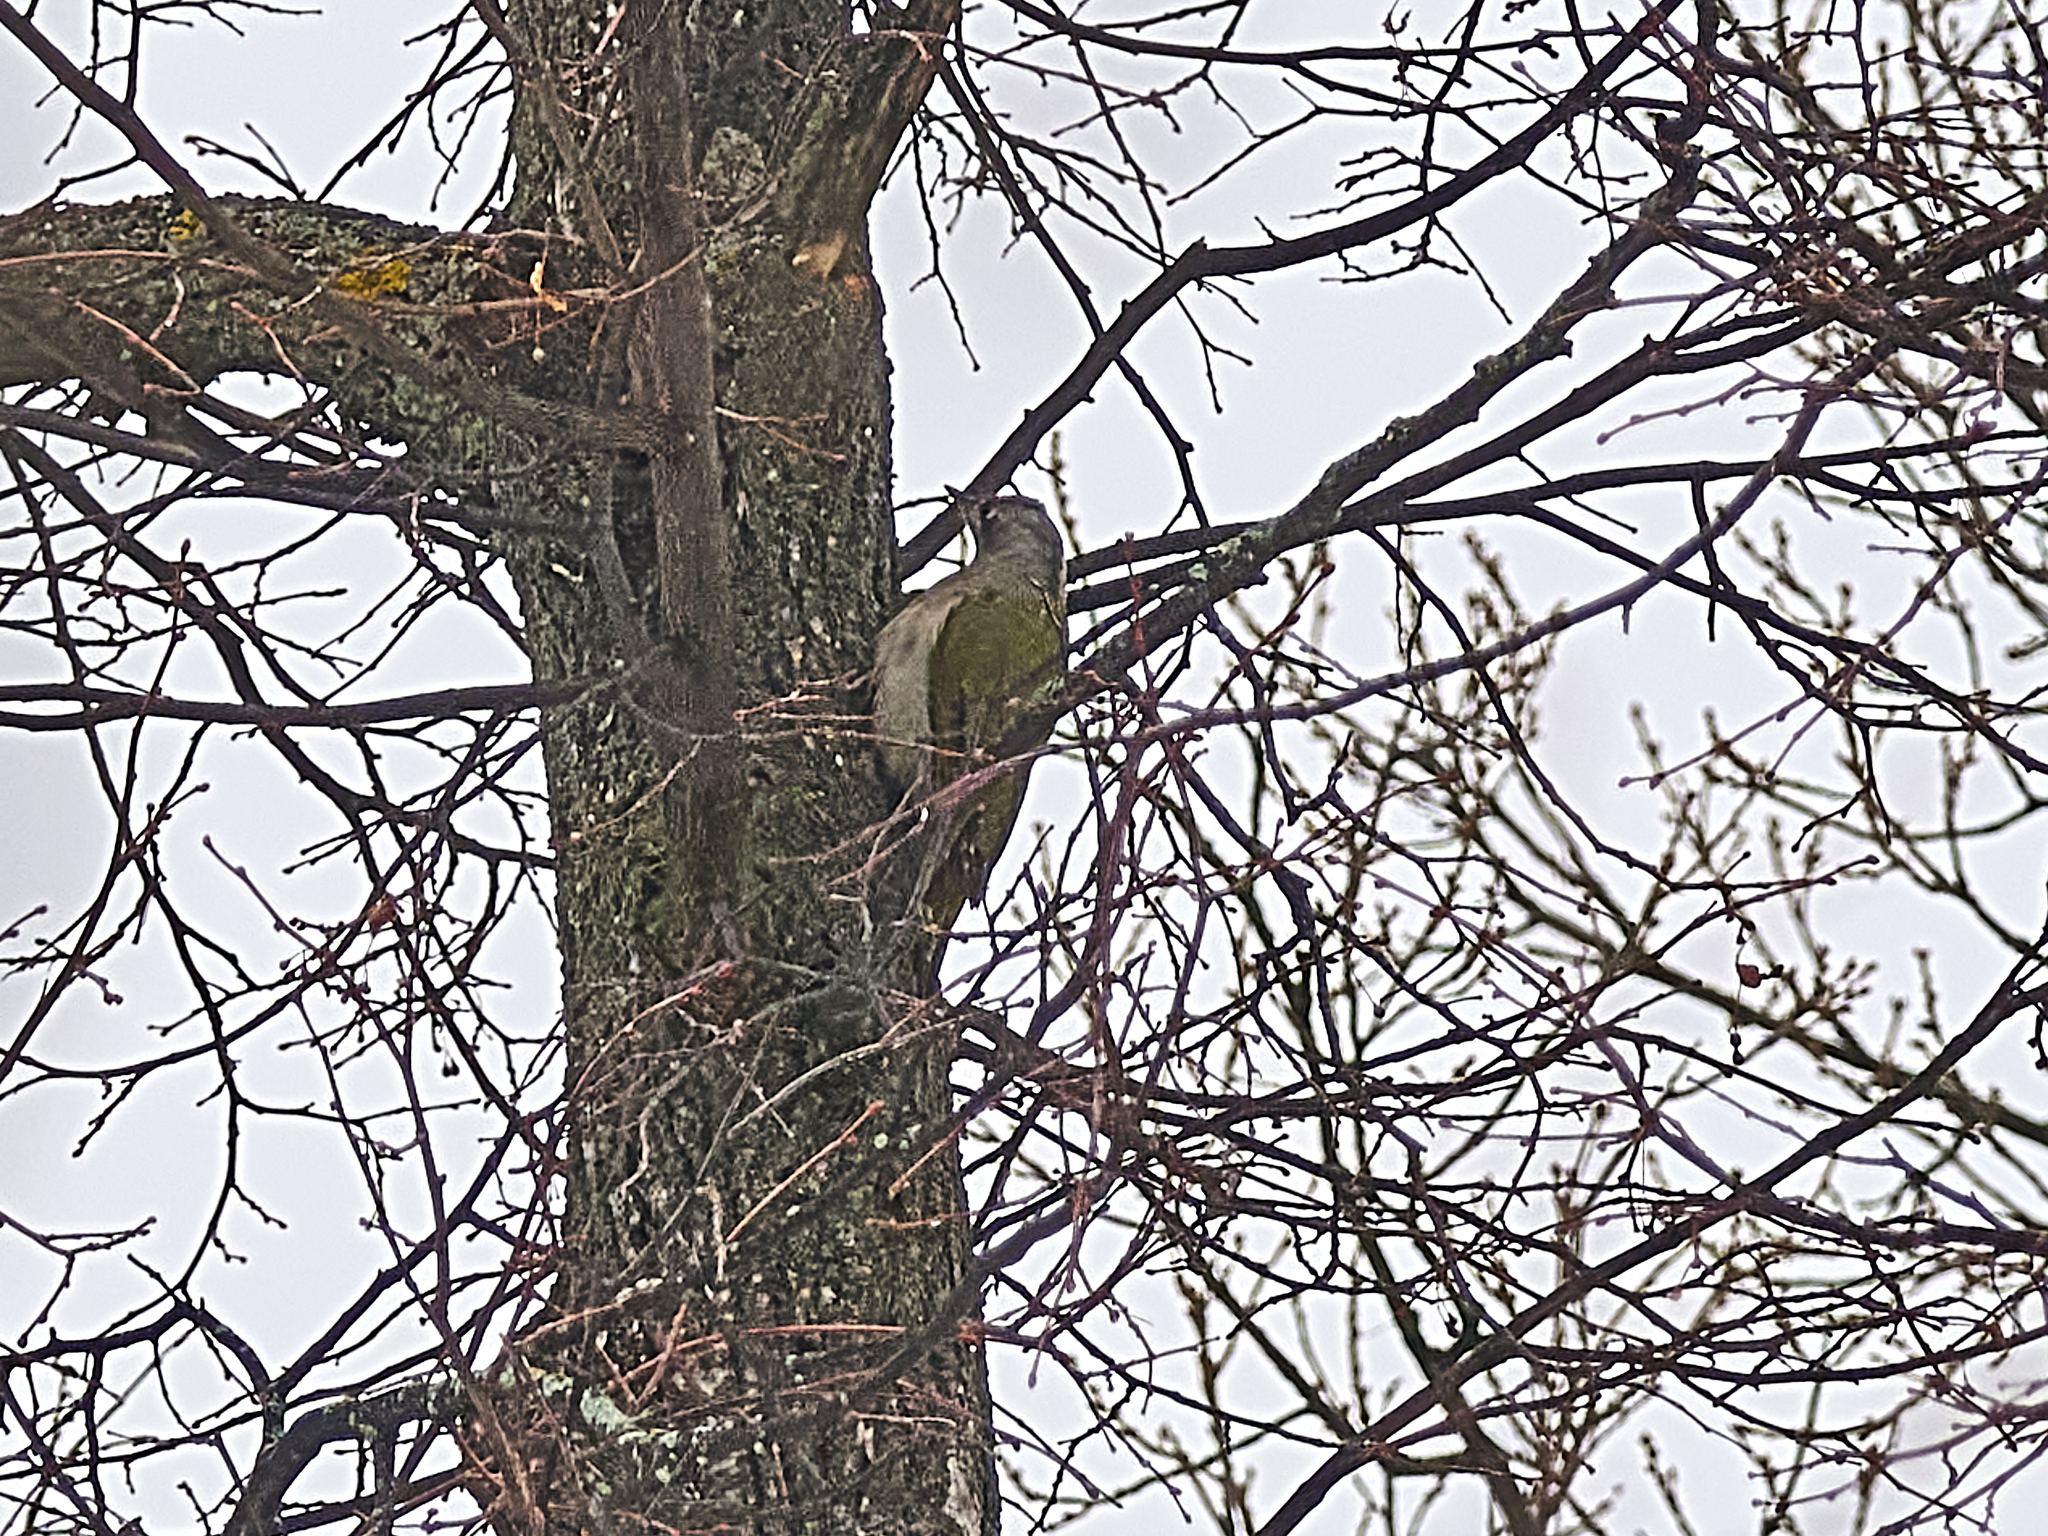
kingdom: Animalia
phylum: Chordata
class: Aves
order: Piciformes
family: Picidae
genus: Picus
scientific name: Picus canus
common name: Grey-headed woodpecker
